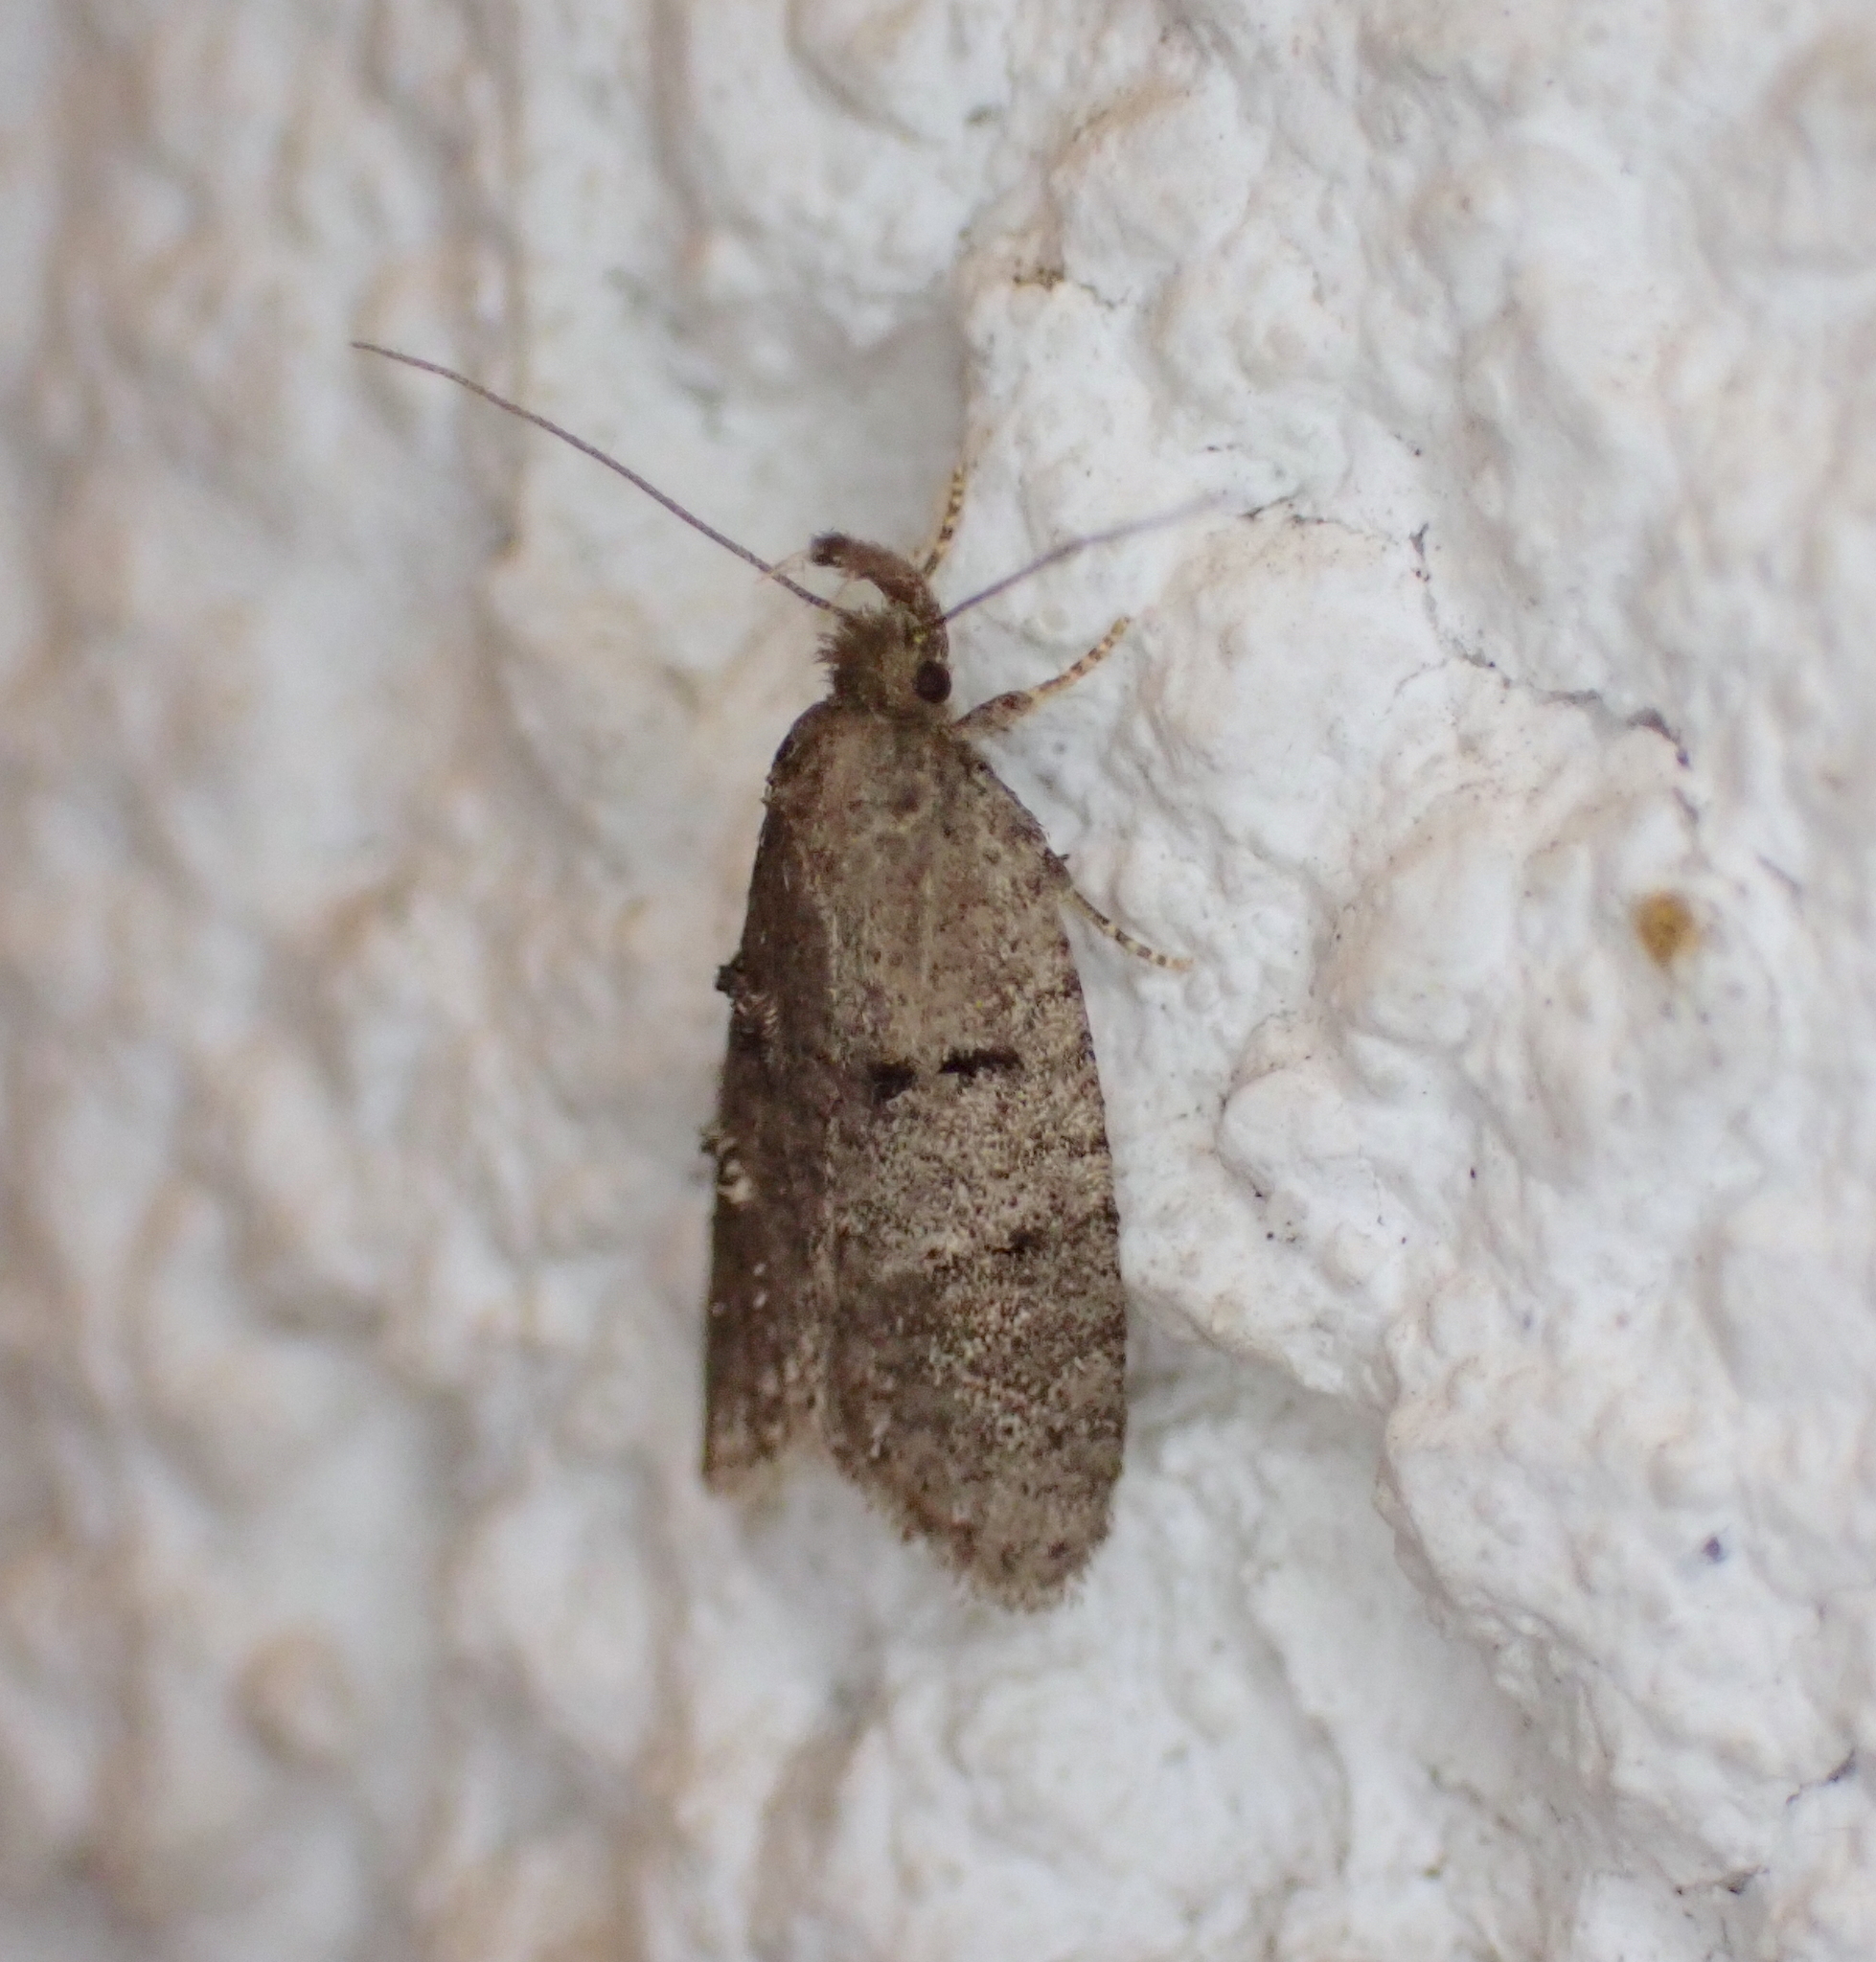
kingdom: Animalia
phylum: Arthropoda
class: Insecta
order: Lepidoptera
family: Oecophoridae
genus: Luquetia
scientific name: Luquetia lobella
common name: Sloe flat-body
